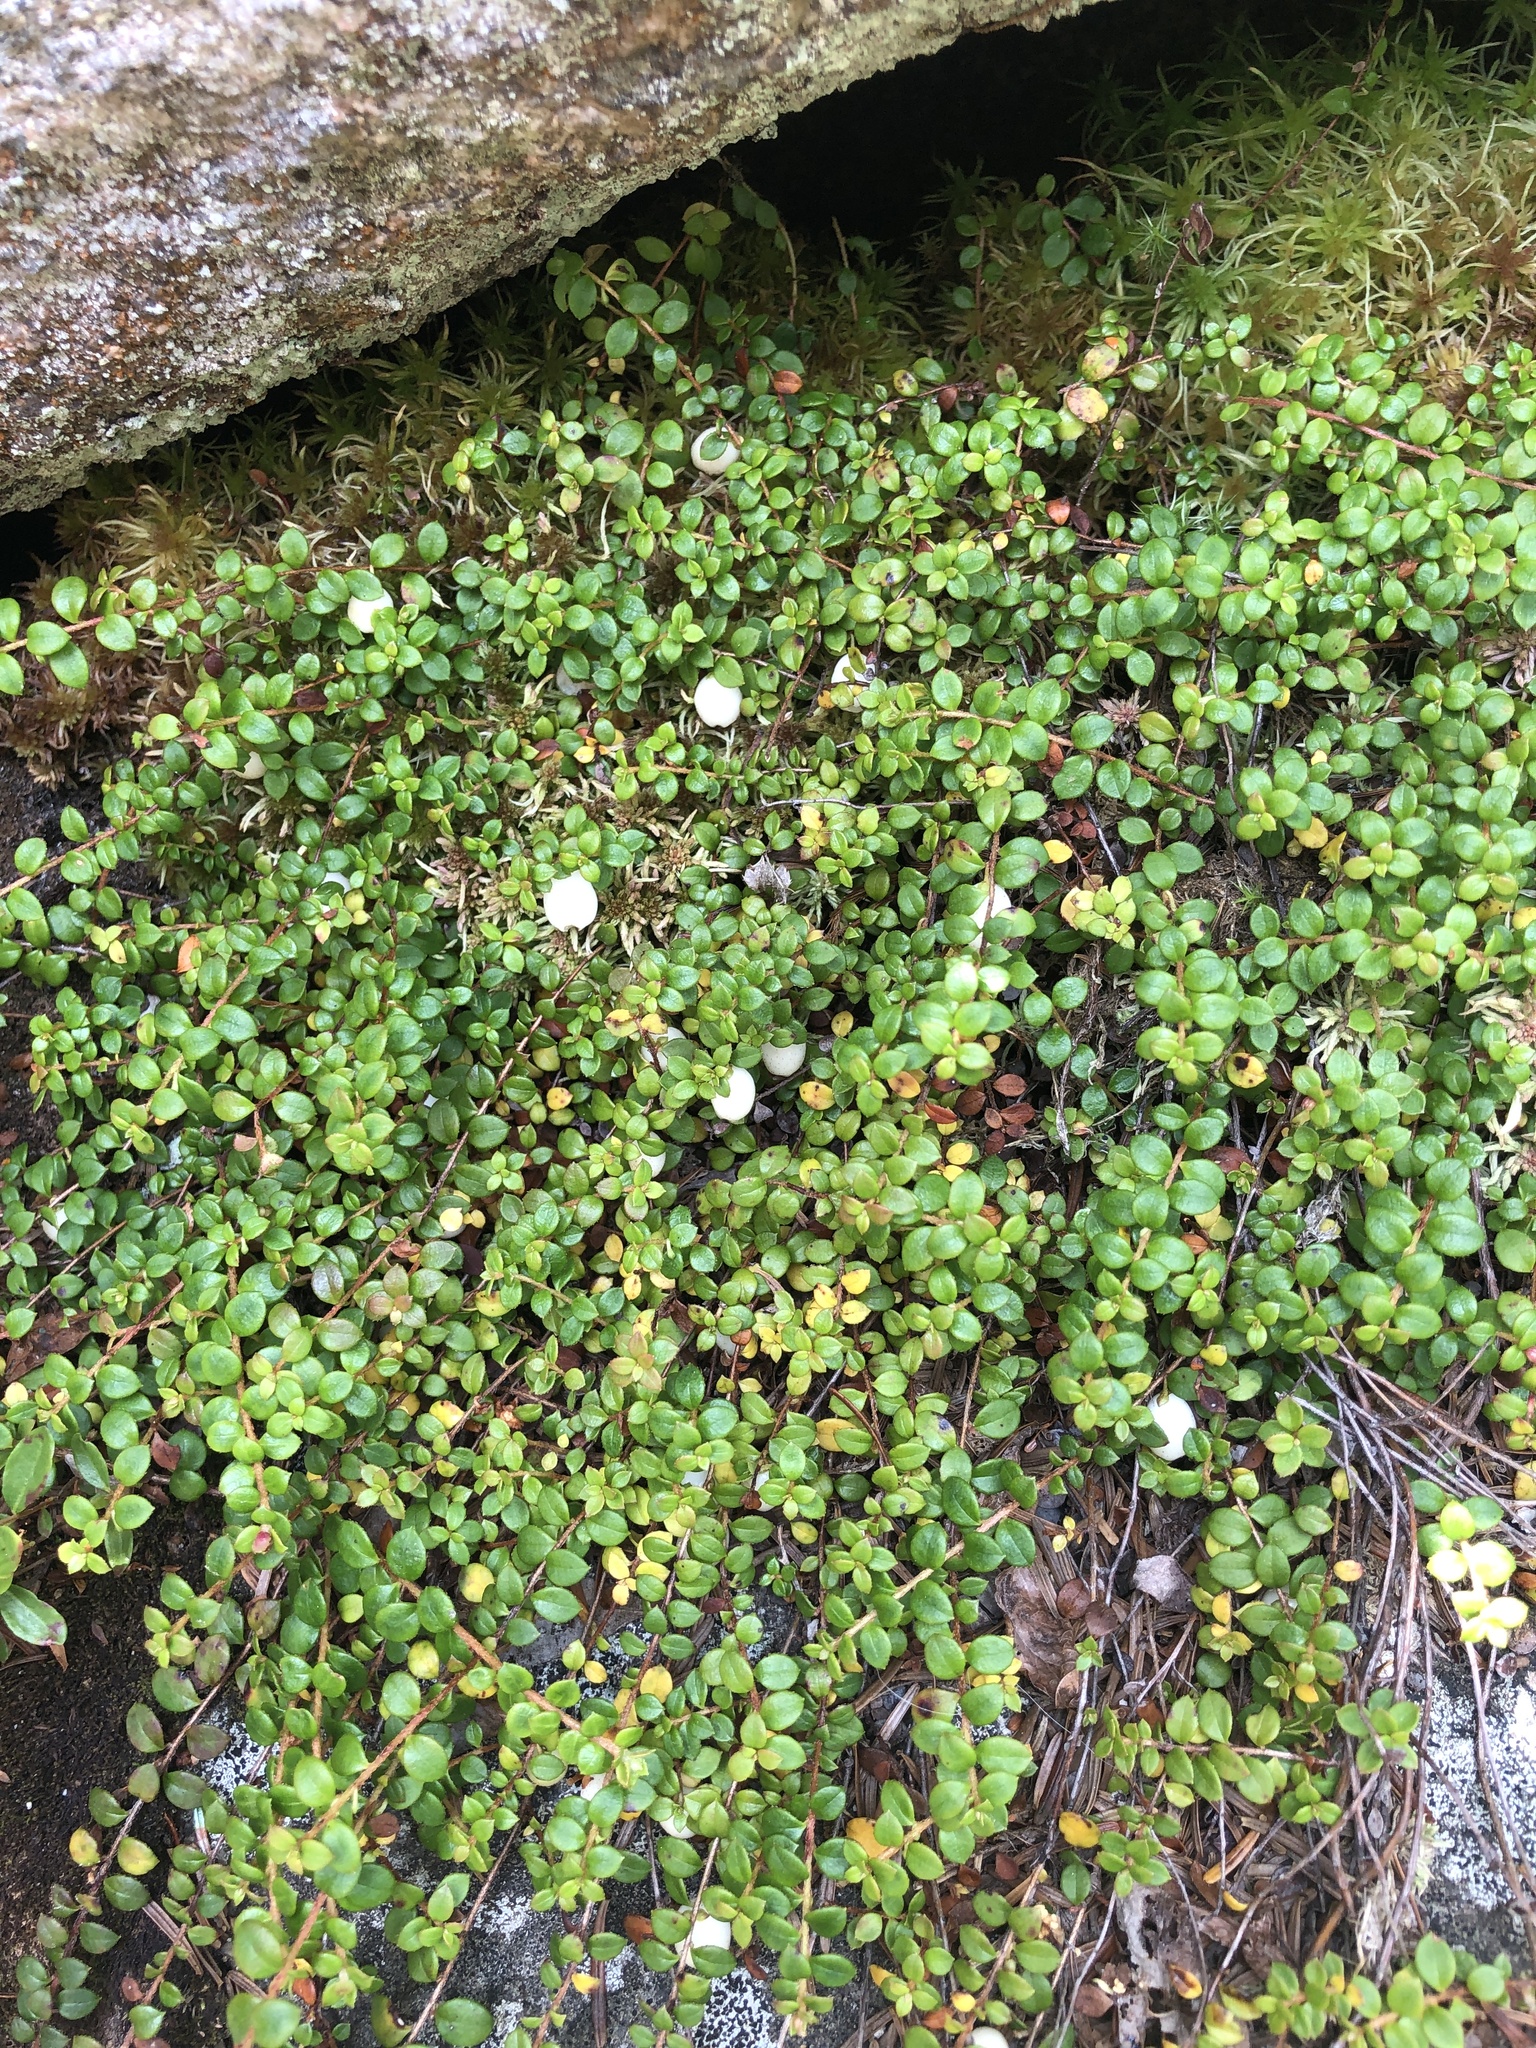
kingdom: Plantae
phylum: Tracheophyta
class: Magnoliopsida
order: Ericales
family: Ericaceae
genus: Gaultheria
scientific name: Gaultheria hispidula
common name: Cancer wintergreen
